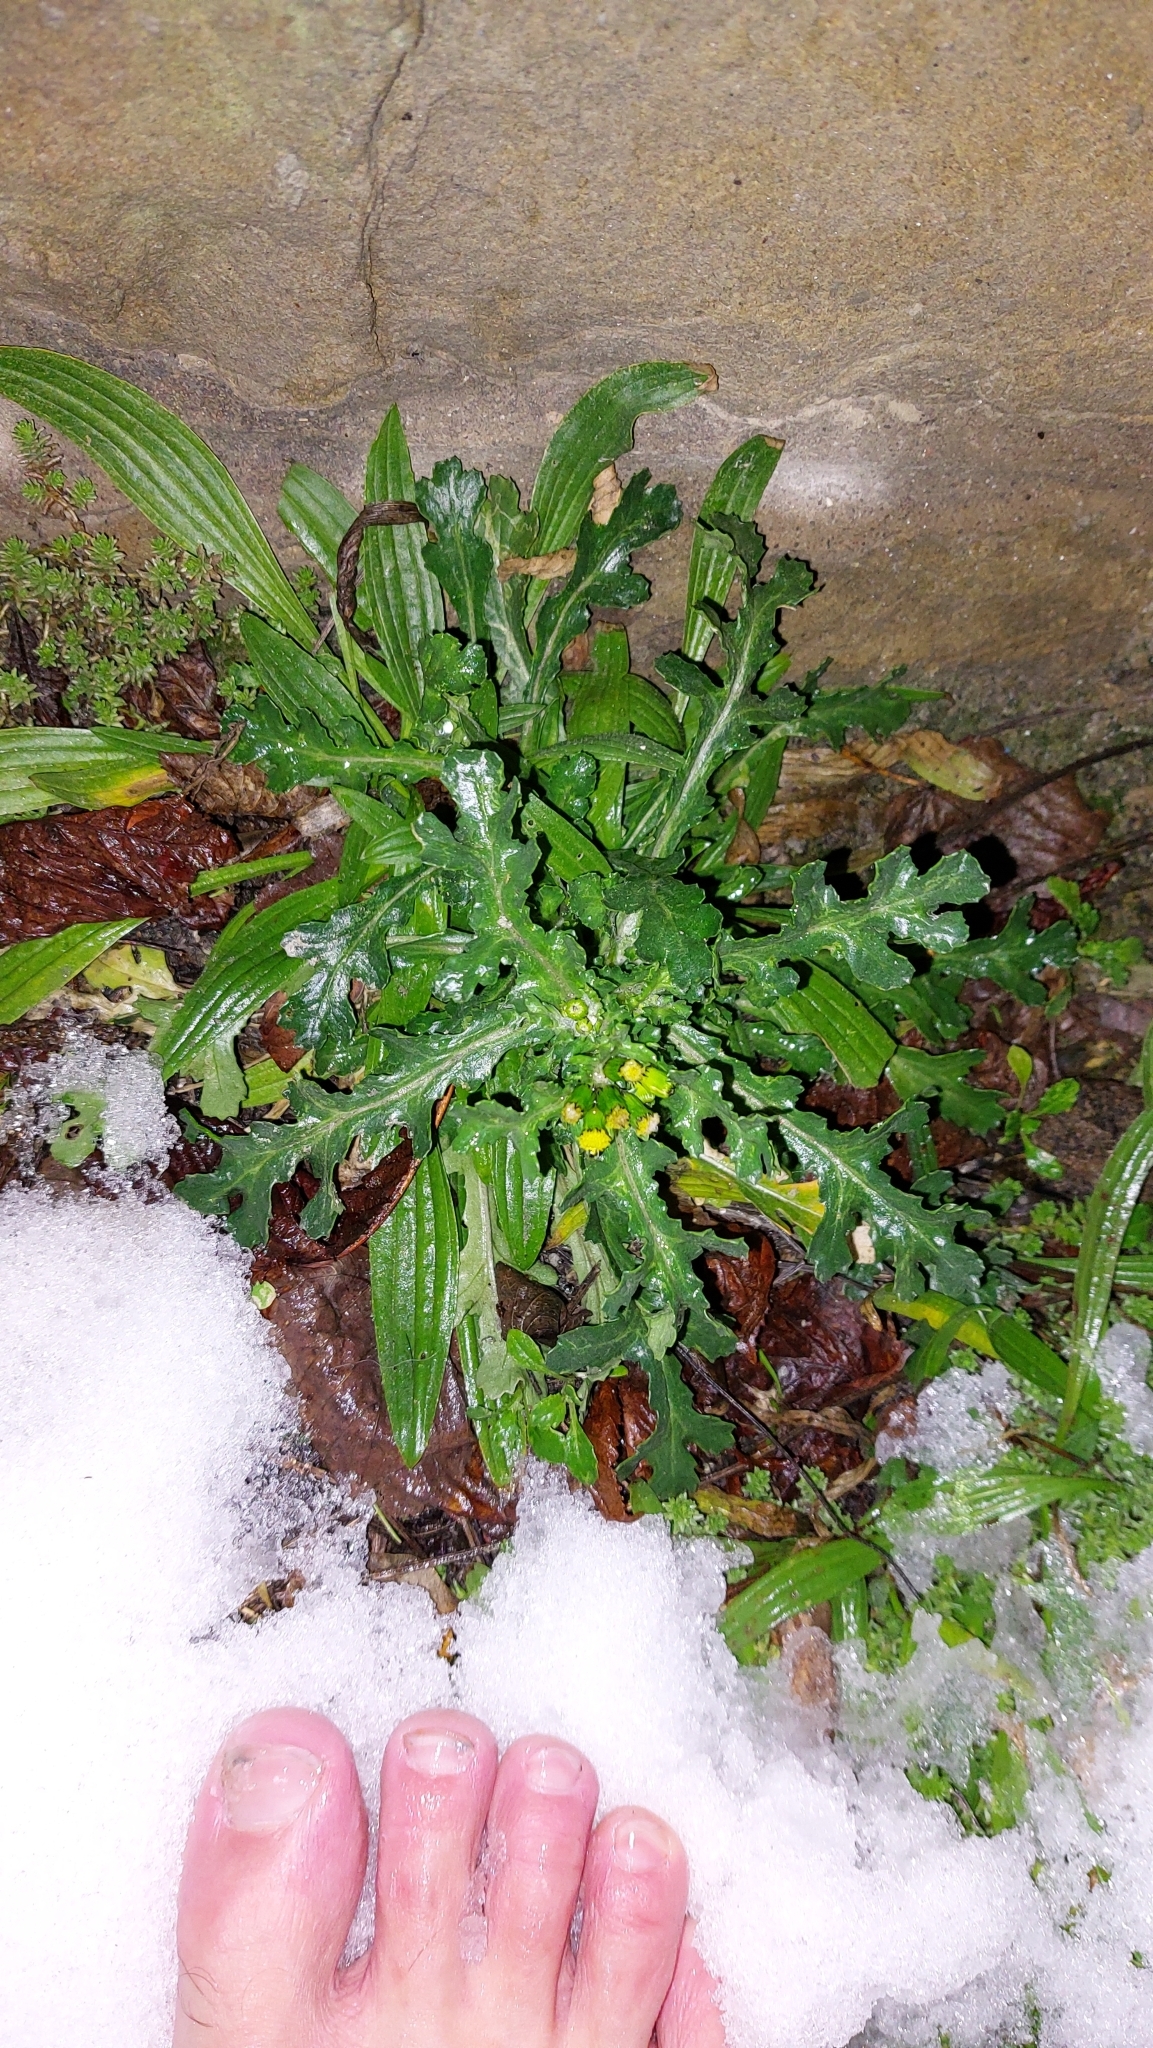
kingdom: Plantae
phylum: Tracheophyta
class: Magnoliopsida
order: Asterales
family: Asteraceae
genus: Senecio
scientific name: Senecio vulgaris
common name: Old-man-in-the-spring
